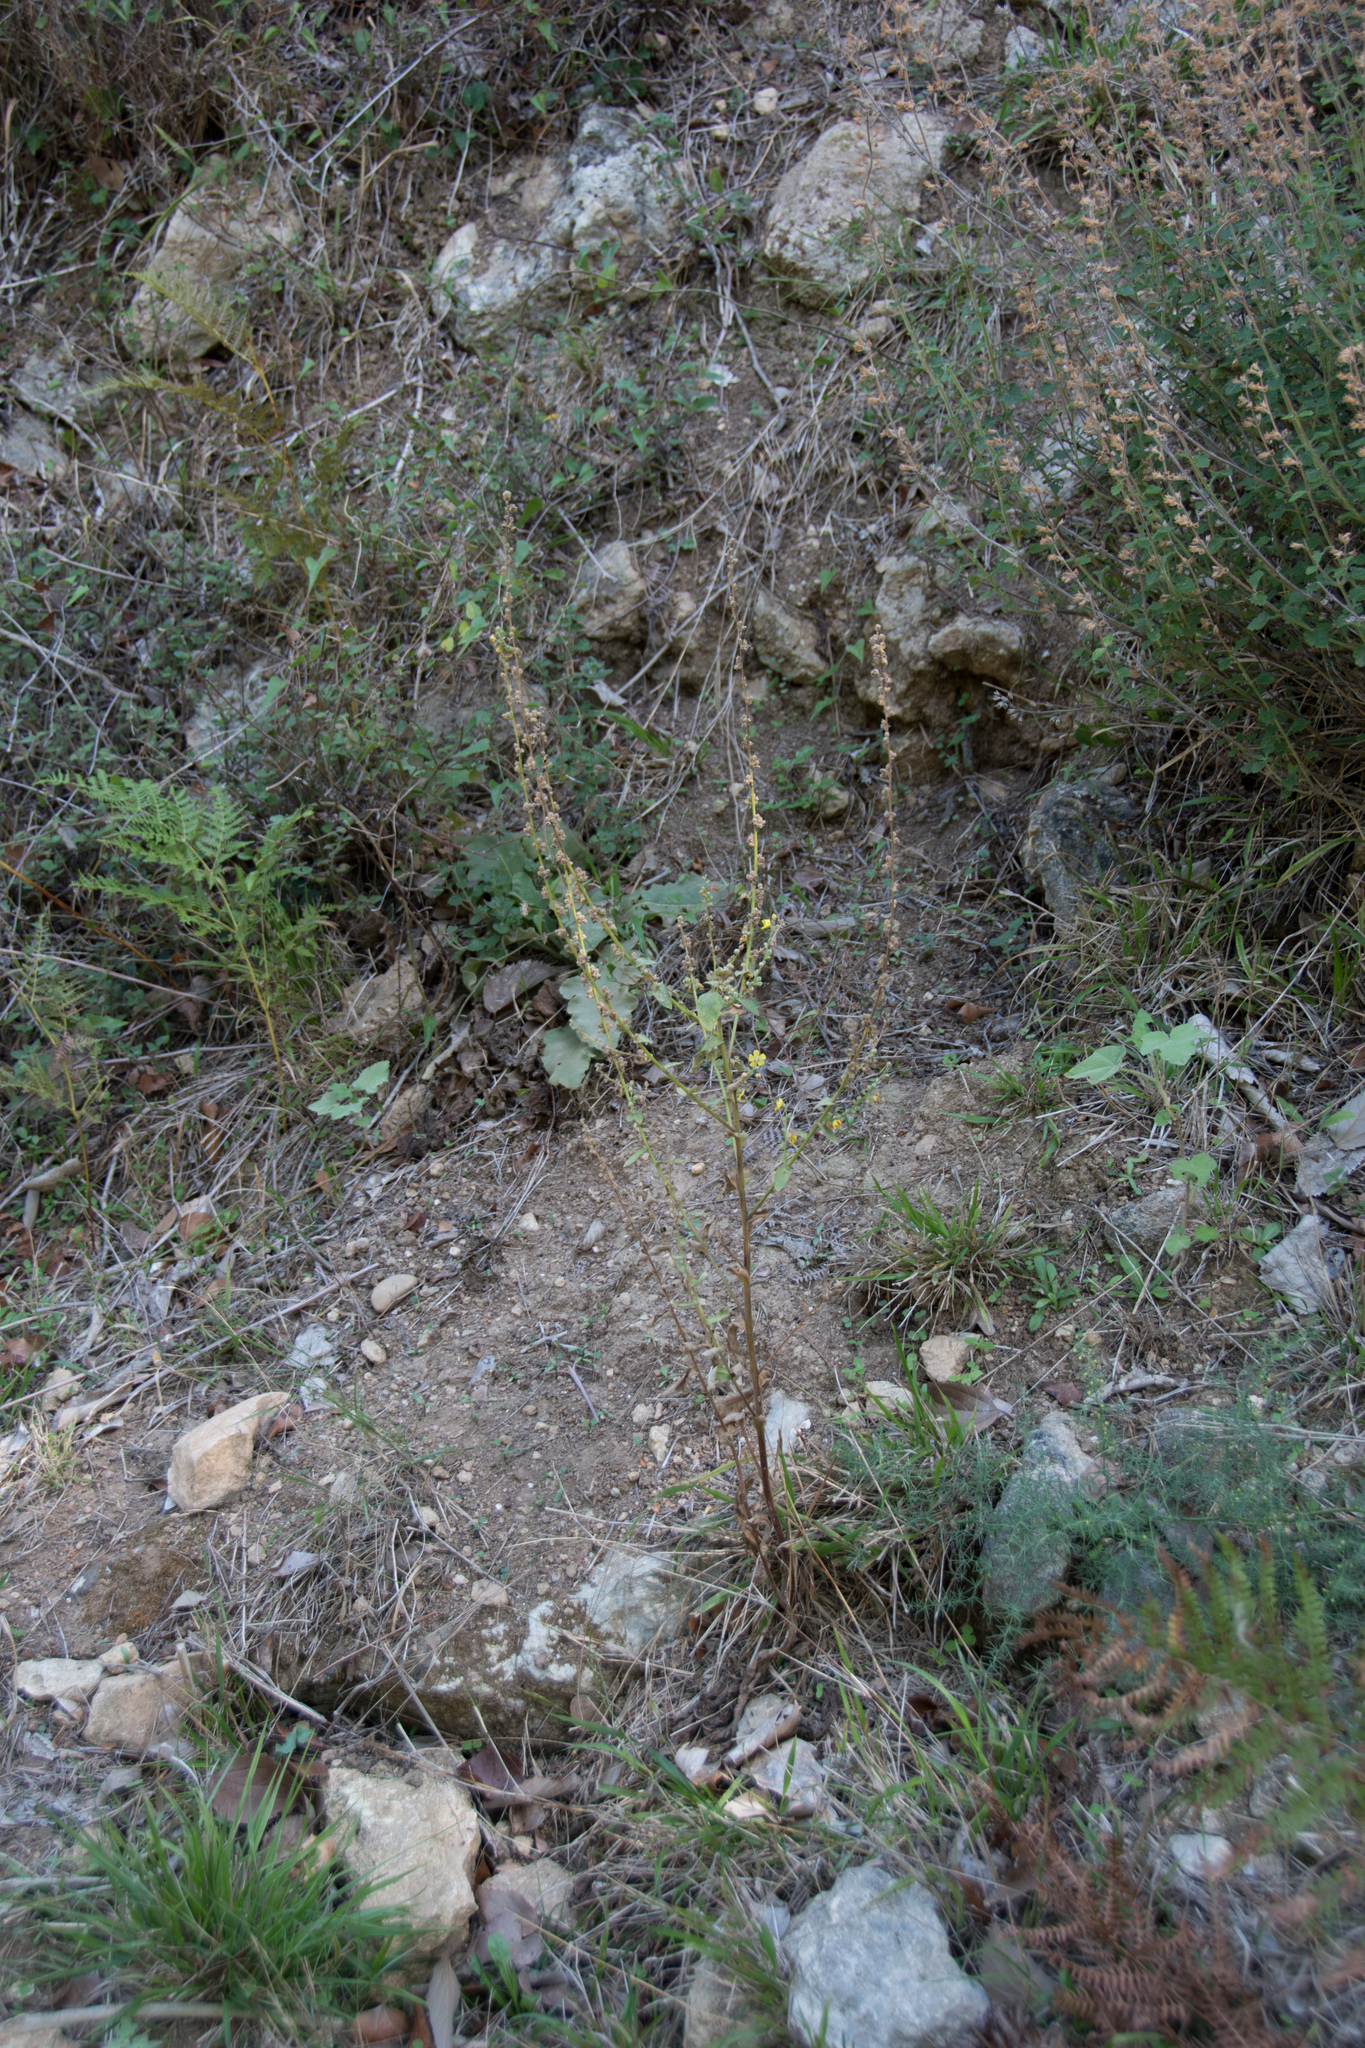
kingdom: Plantae
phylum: Tracheophyta
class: Magnoliopsida
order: Lamiales
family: Scrophulariaceae
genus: Verbascum
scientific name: Verbascum sinuatum
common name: Wavyleaf mullein
